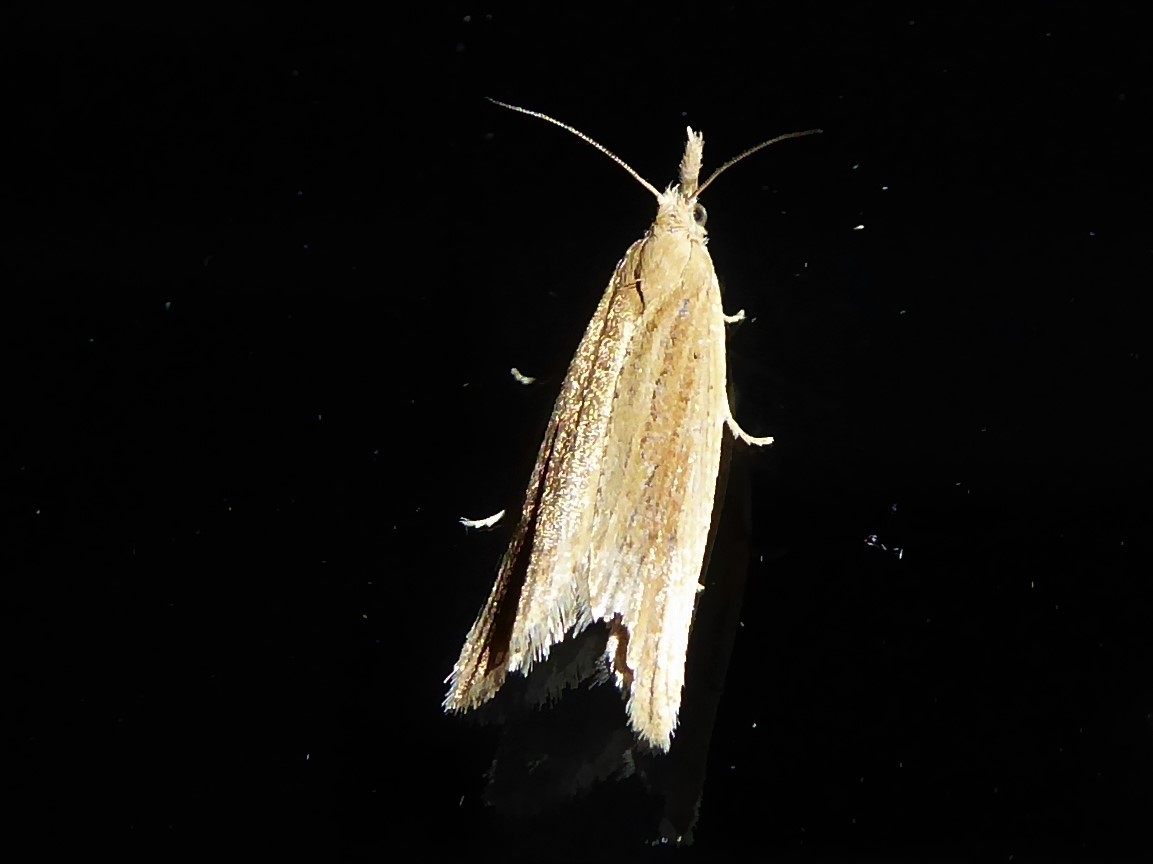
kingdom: Animalia
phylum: Arthropoda
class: Insecta
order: Lepidoptera
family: Tortricidae
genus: Bactra
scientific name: Bactra noteraula
